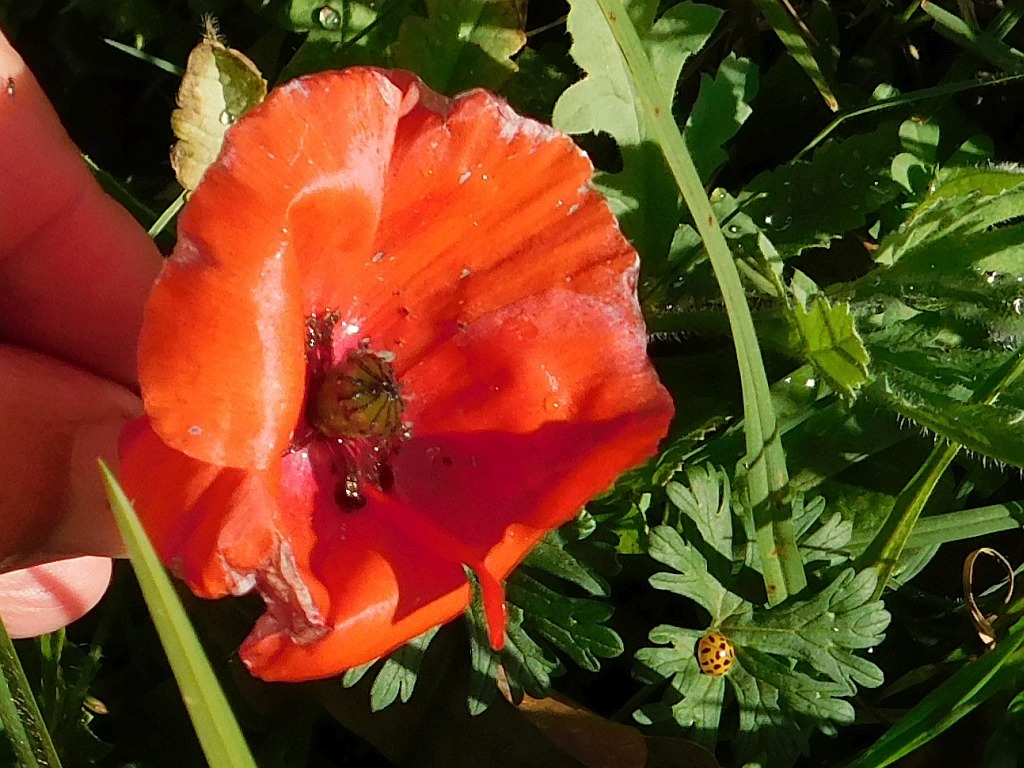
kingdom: Plantae
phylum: Tracheophyta
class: Magnoliopsida
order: Ranunculales
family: Papaveraceae
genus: Papaver
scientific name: Papaver rhoeas
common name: Corn poppy
